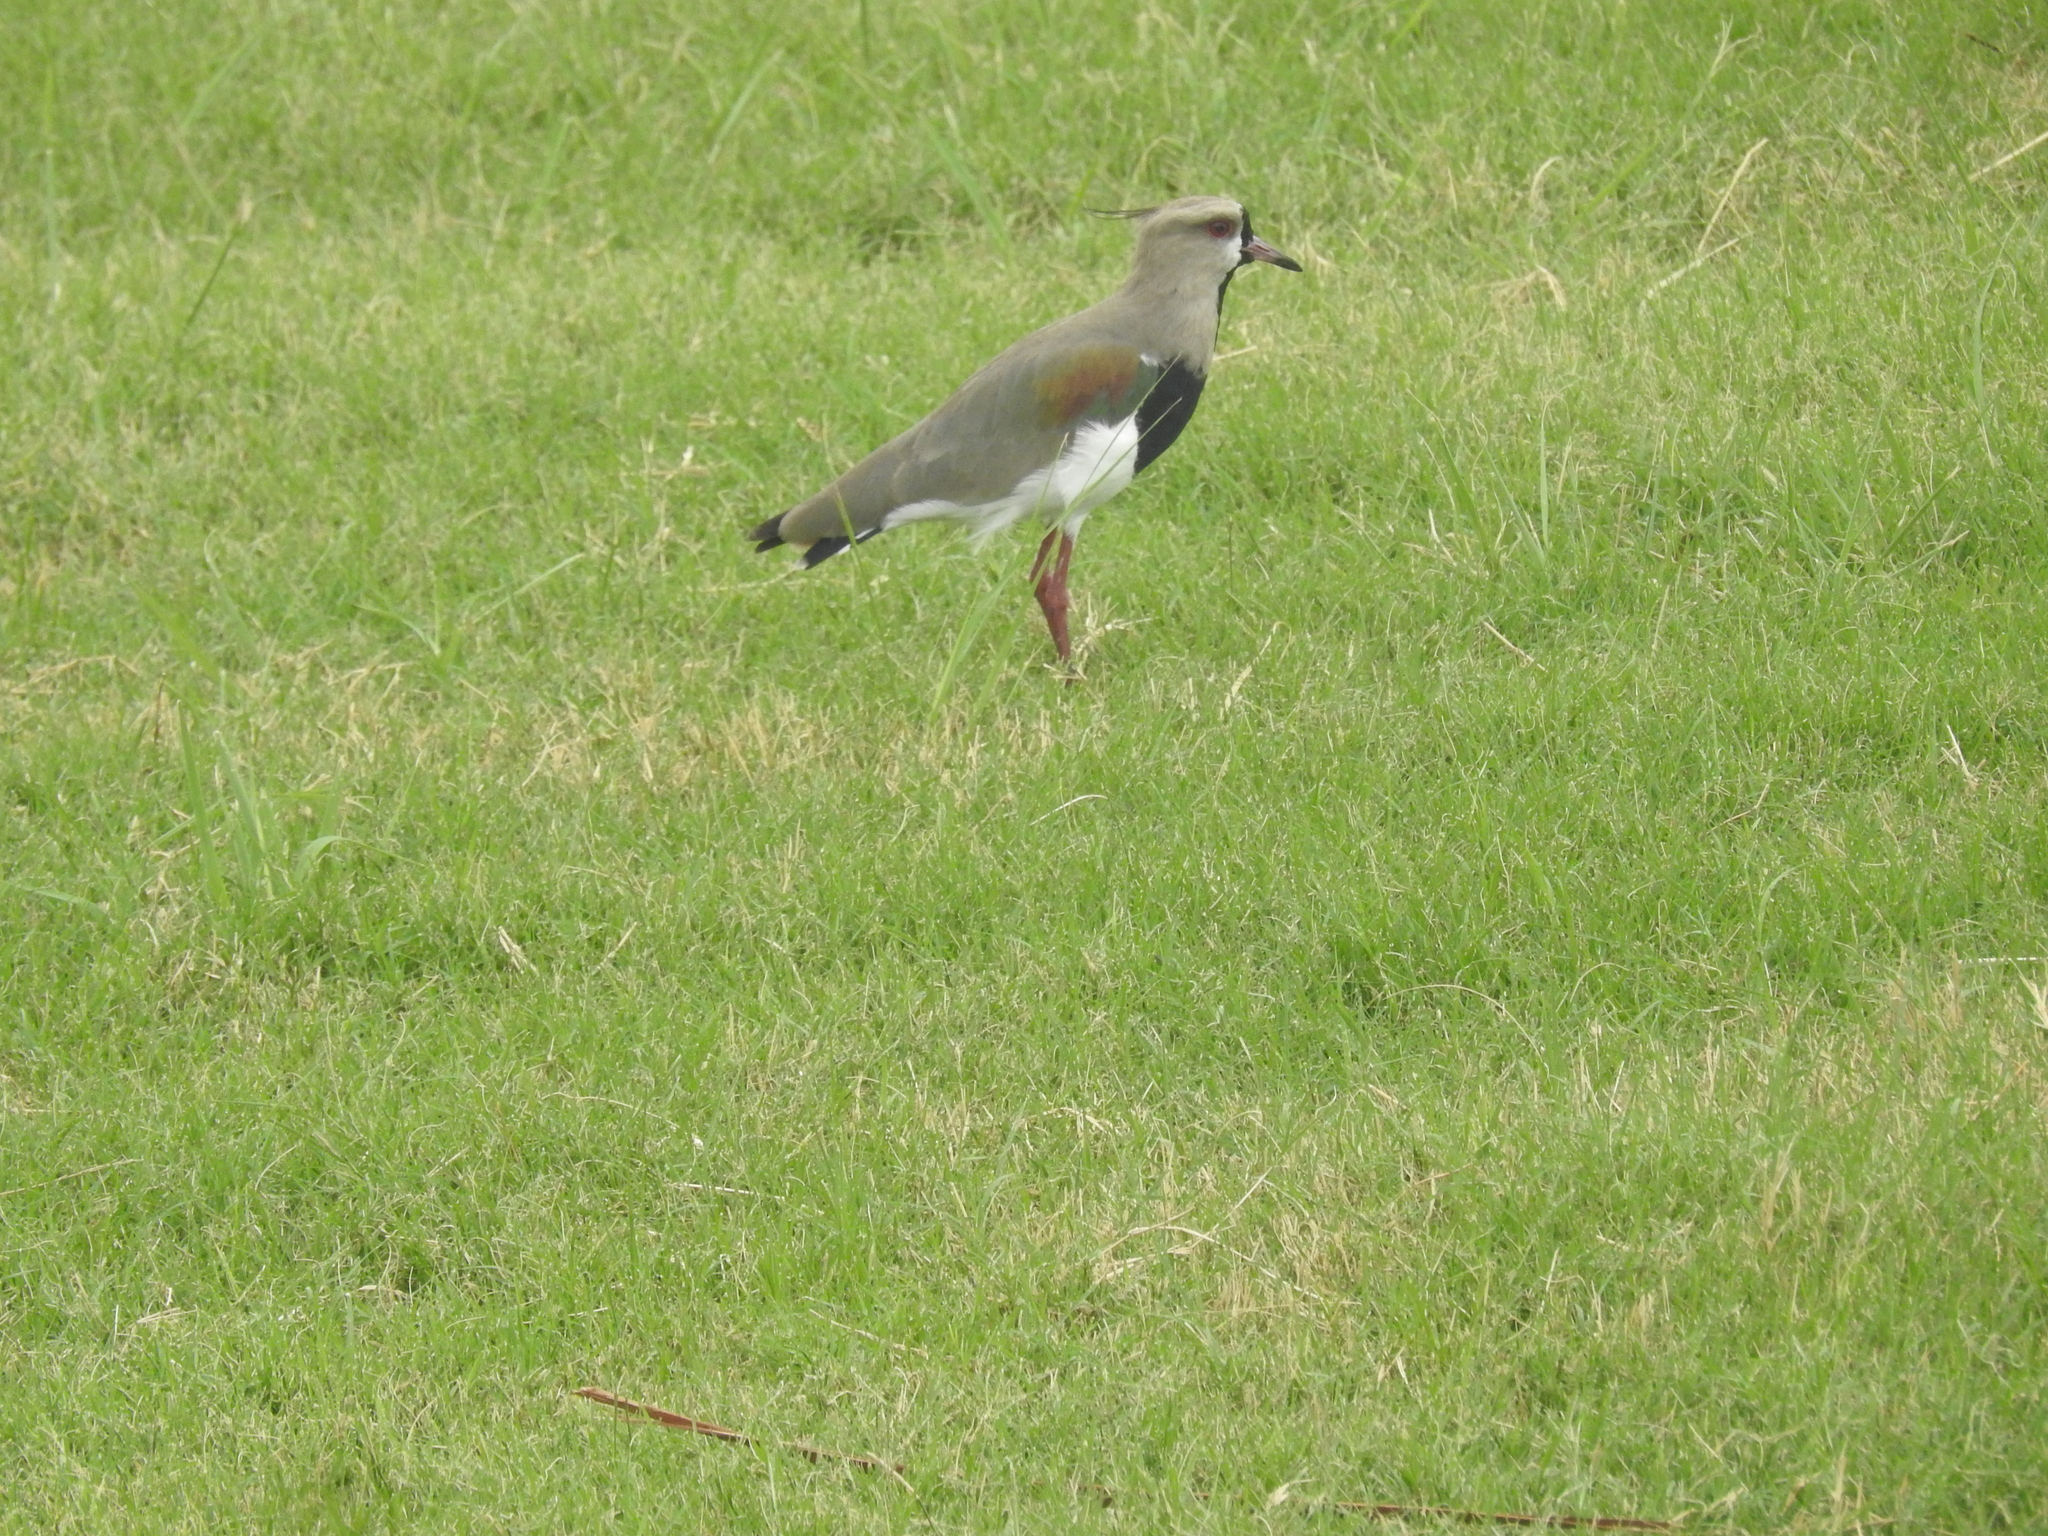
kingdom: Animalia
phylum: Chordata
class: Aves
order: Charadriiformes
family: Charadriidae
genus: Vanellus
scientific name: Vanellus chilensis
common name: Southern lapwing
